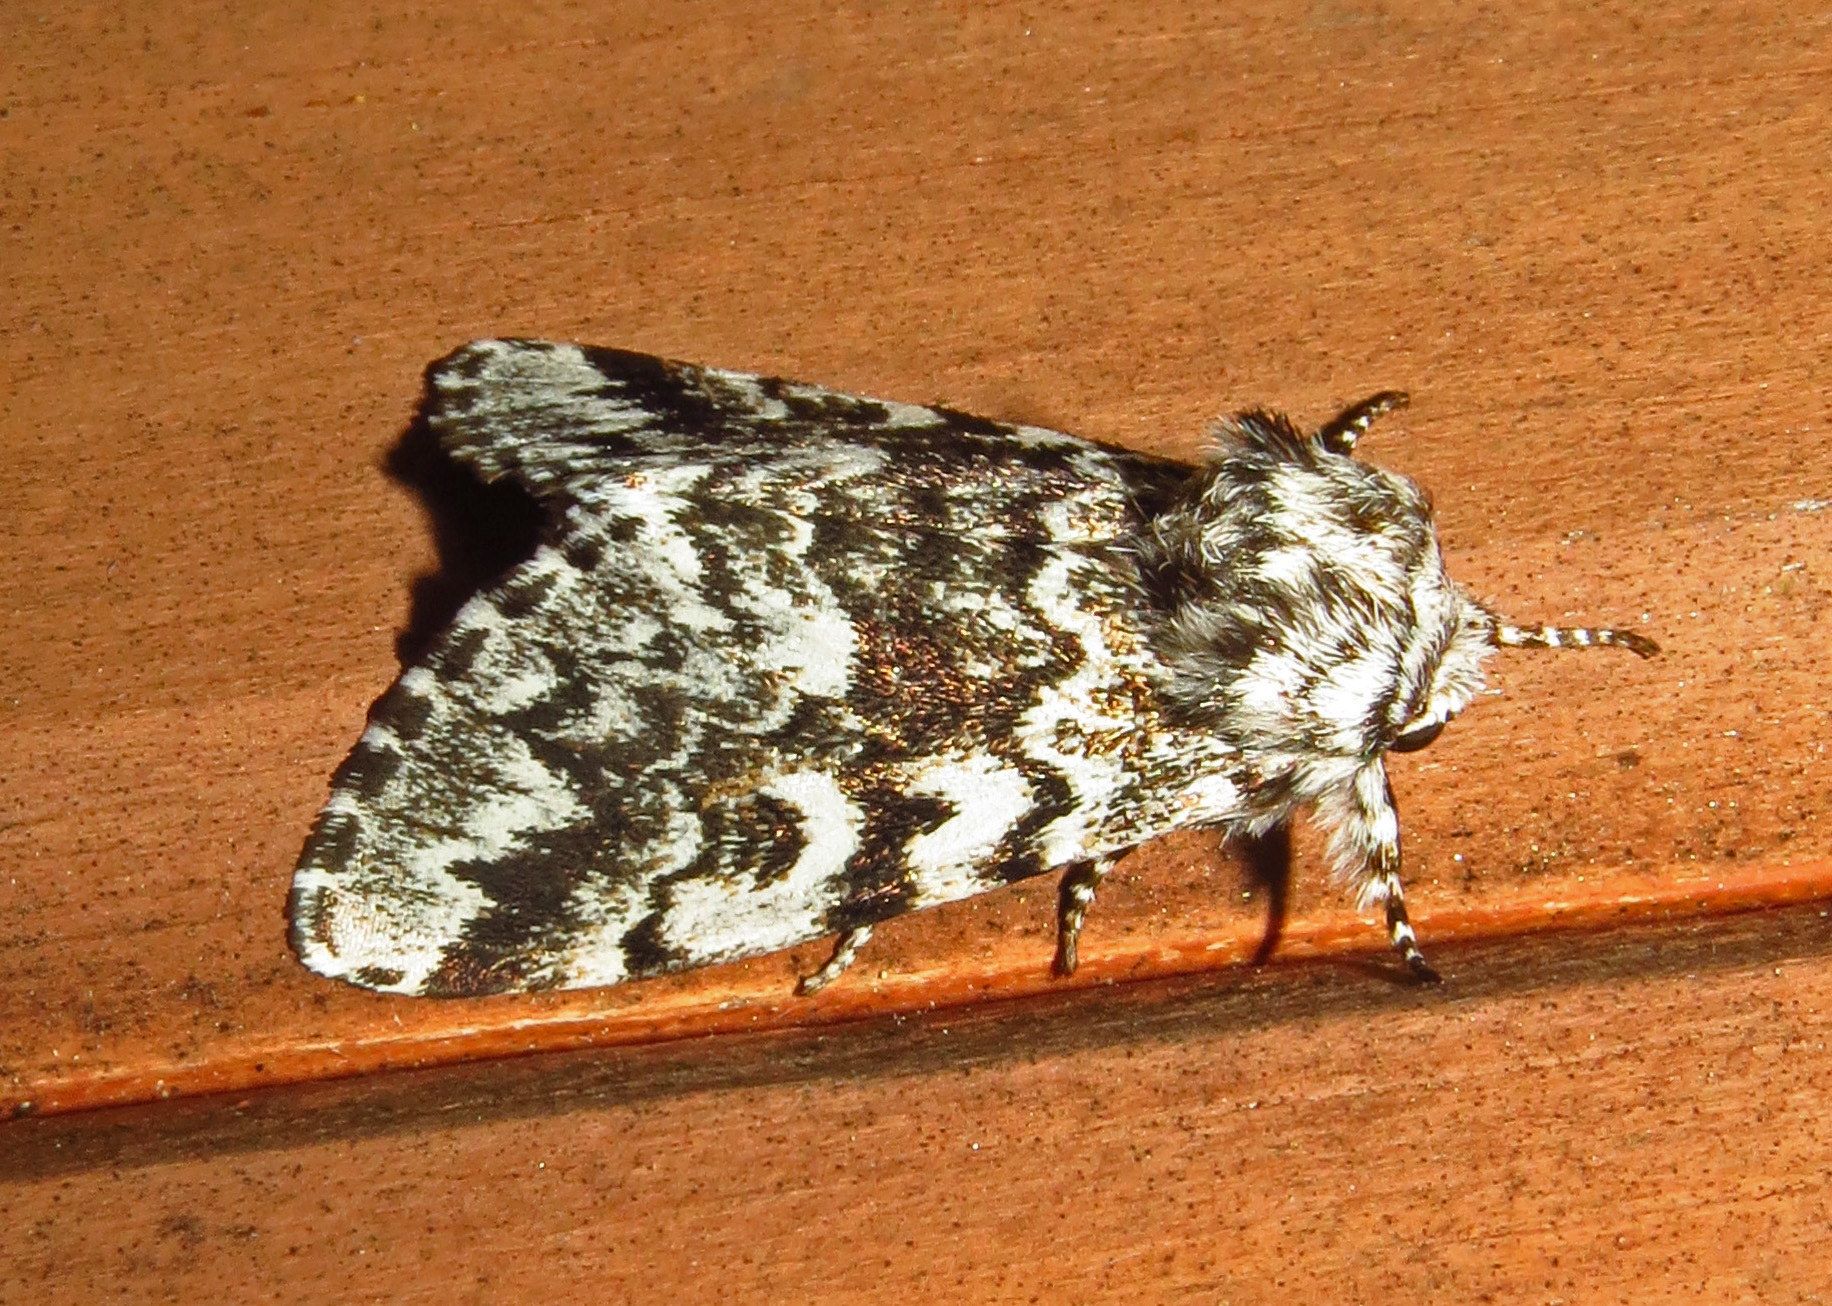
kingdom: Animalia
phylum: Arthropoda
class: Insecta
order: Lepidoptera
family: Noctuidae
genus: Panthea
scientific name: Panthea acronyctoides
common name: Black zigzag moth
